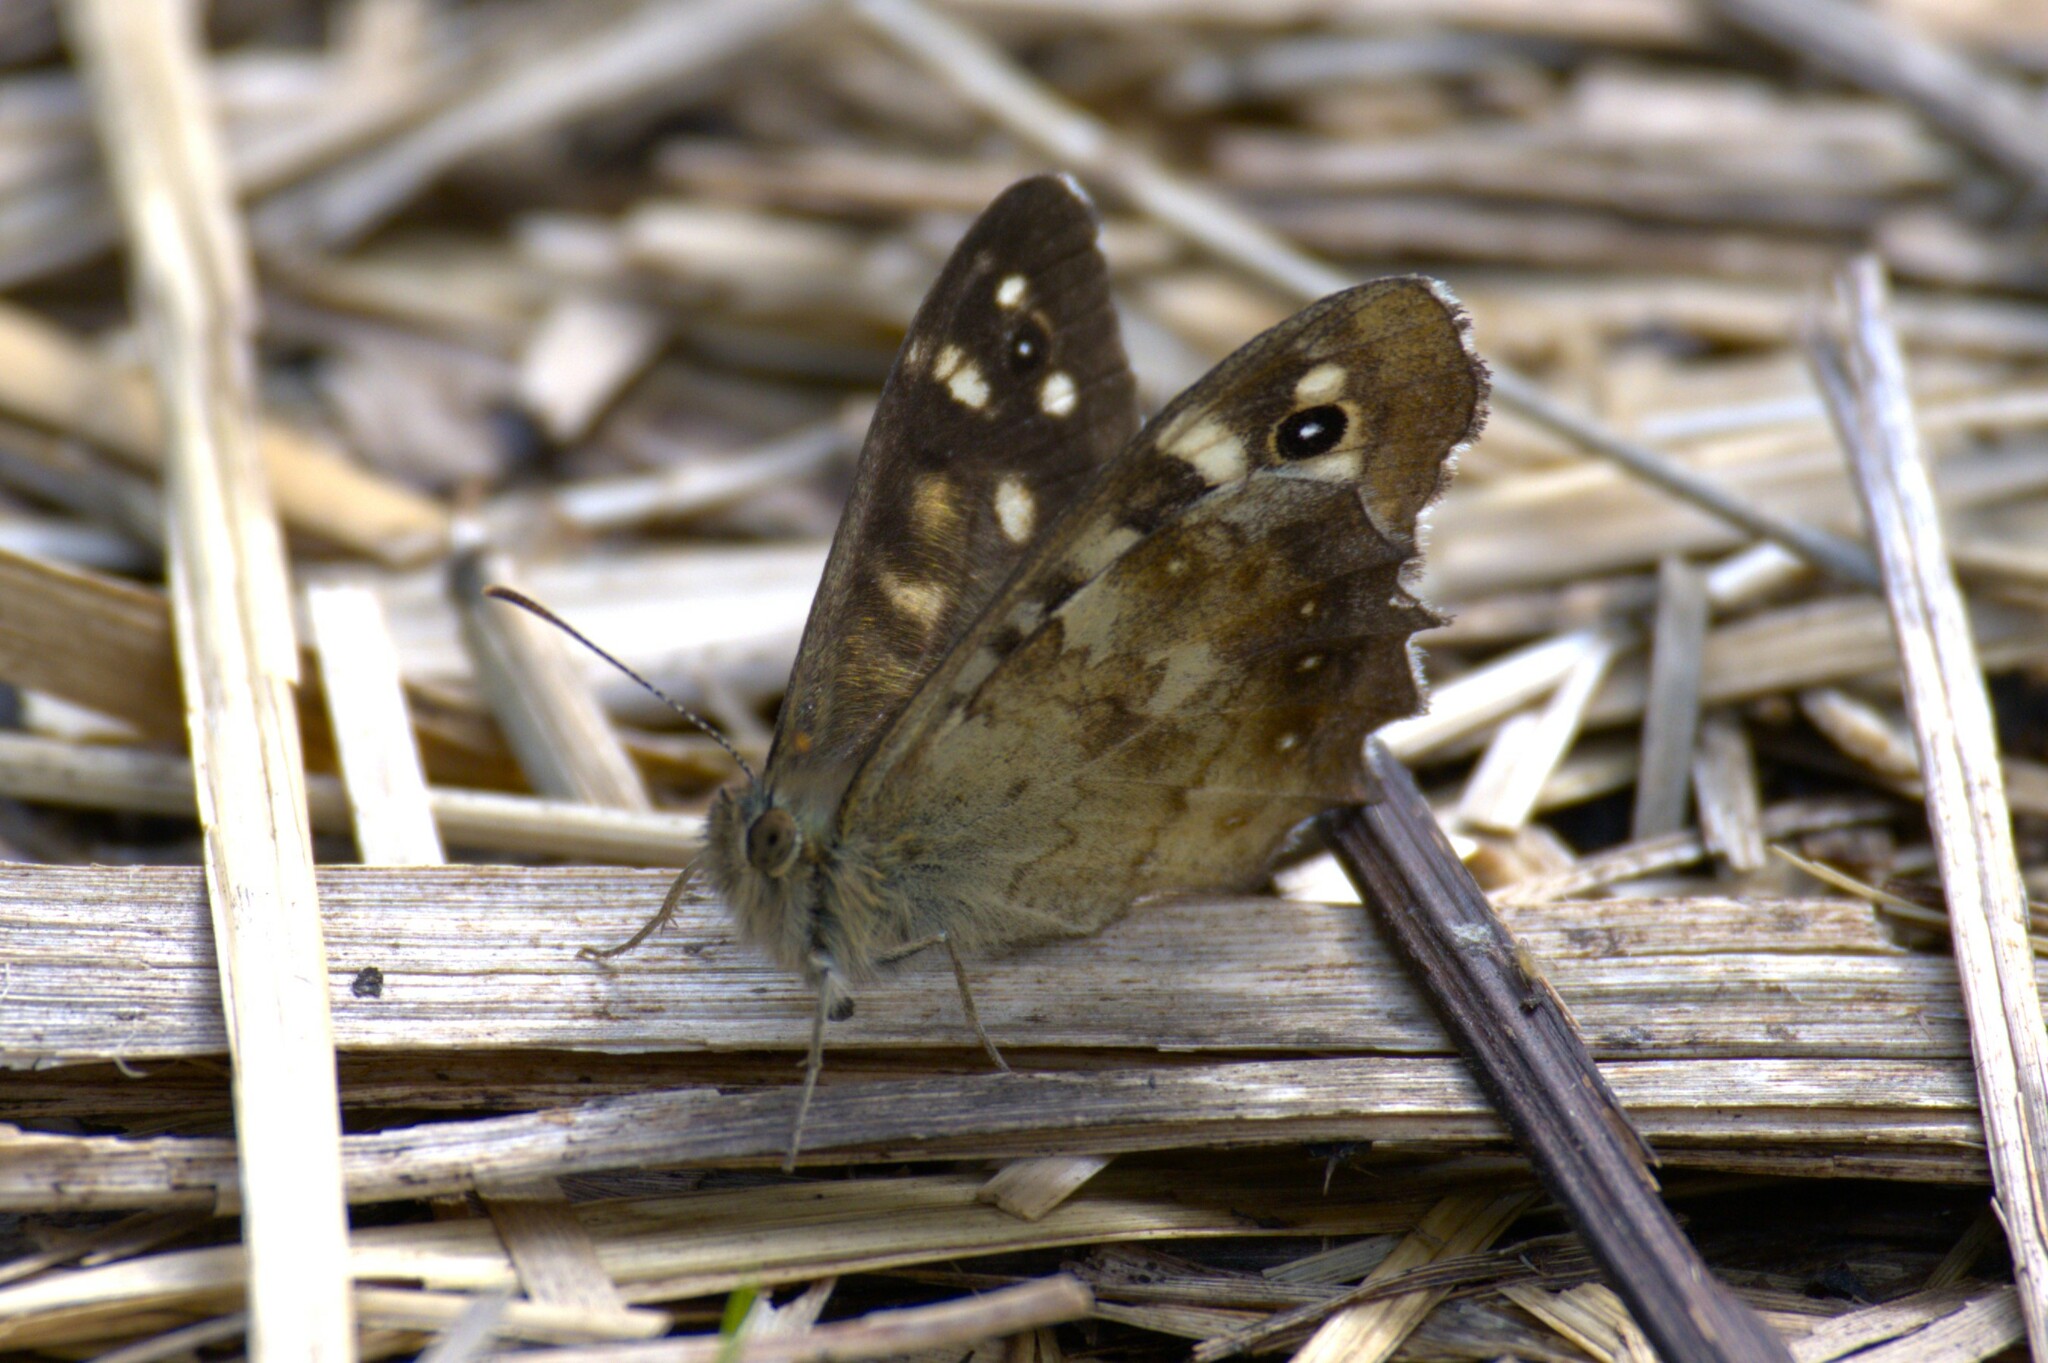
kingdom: Animalia
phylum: Arthropoda
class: Insecta
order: Lepidoptera
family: Nymphalidae
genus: Pararge
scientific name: Pararge aegeria
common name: Speckled wood
